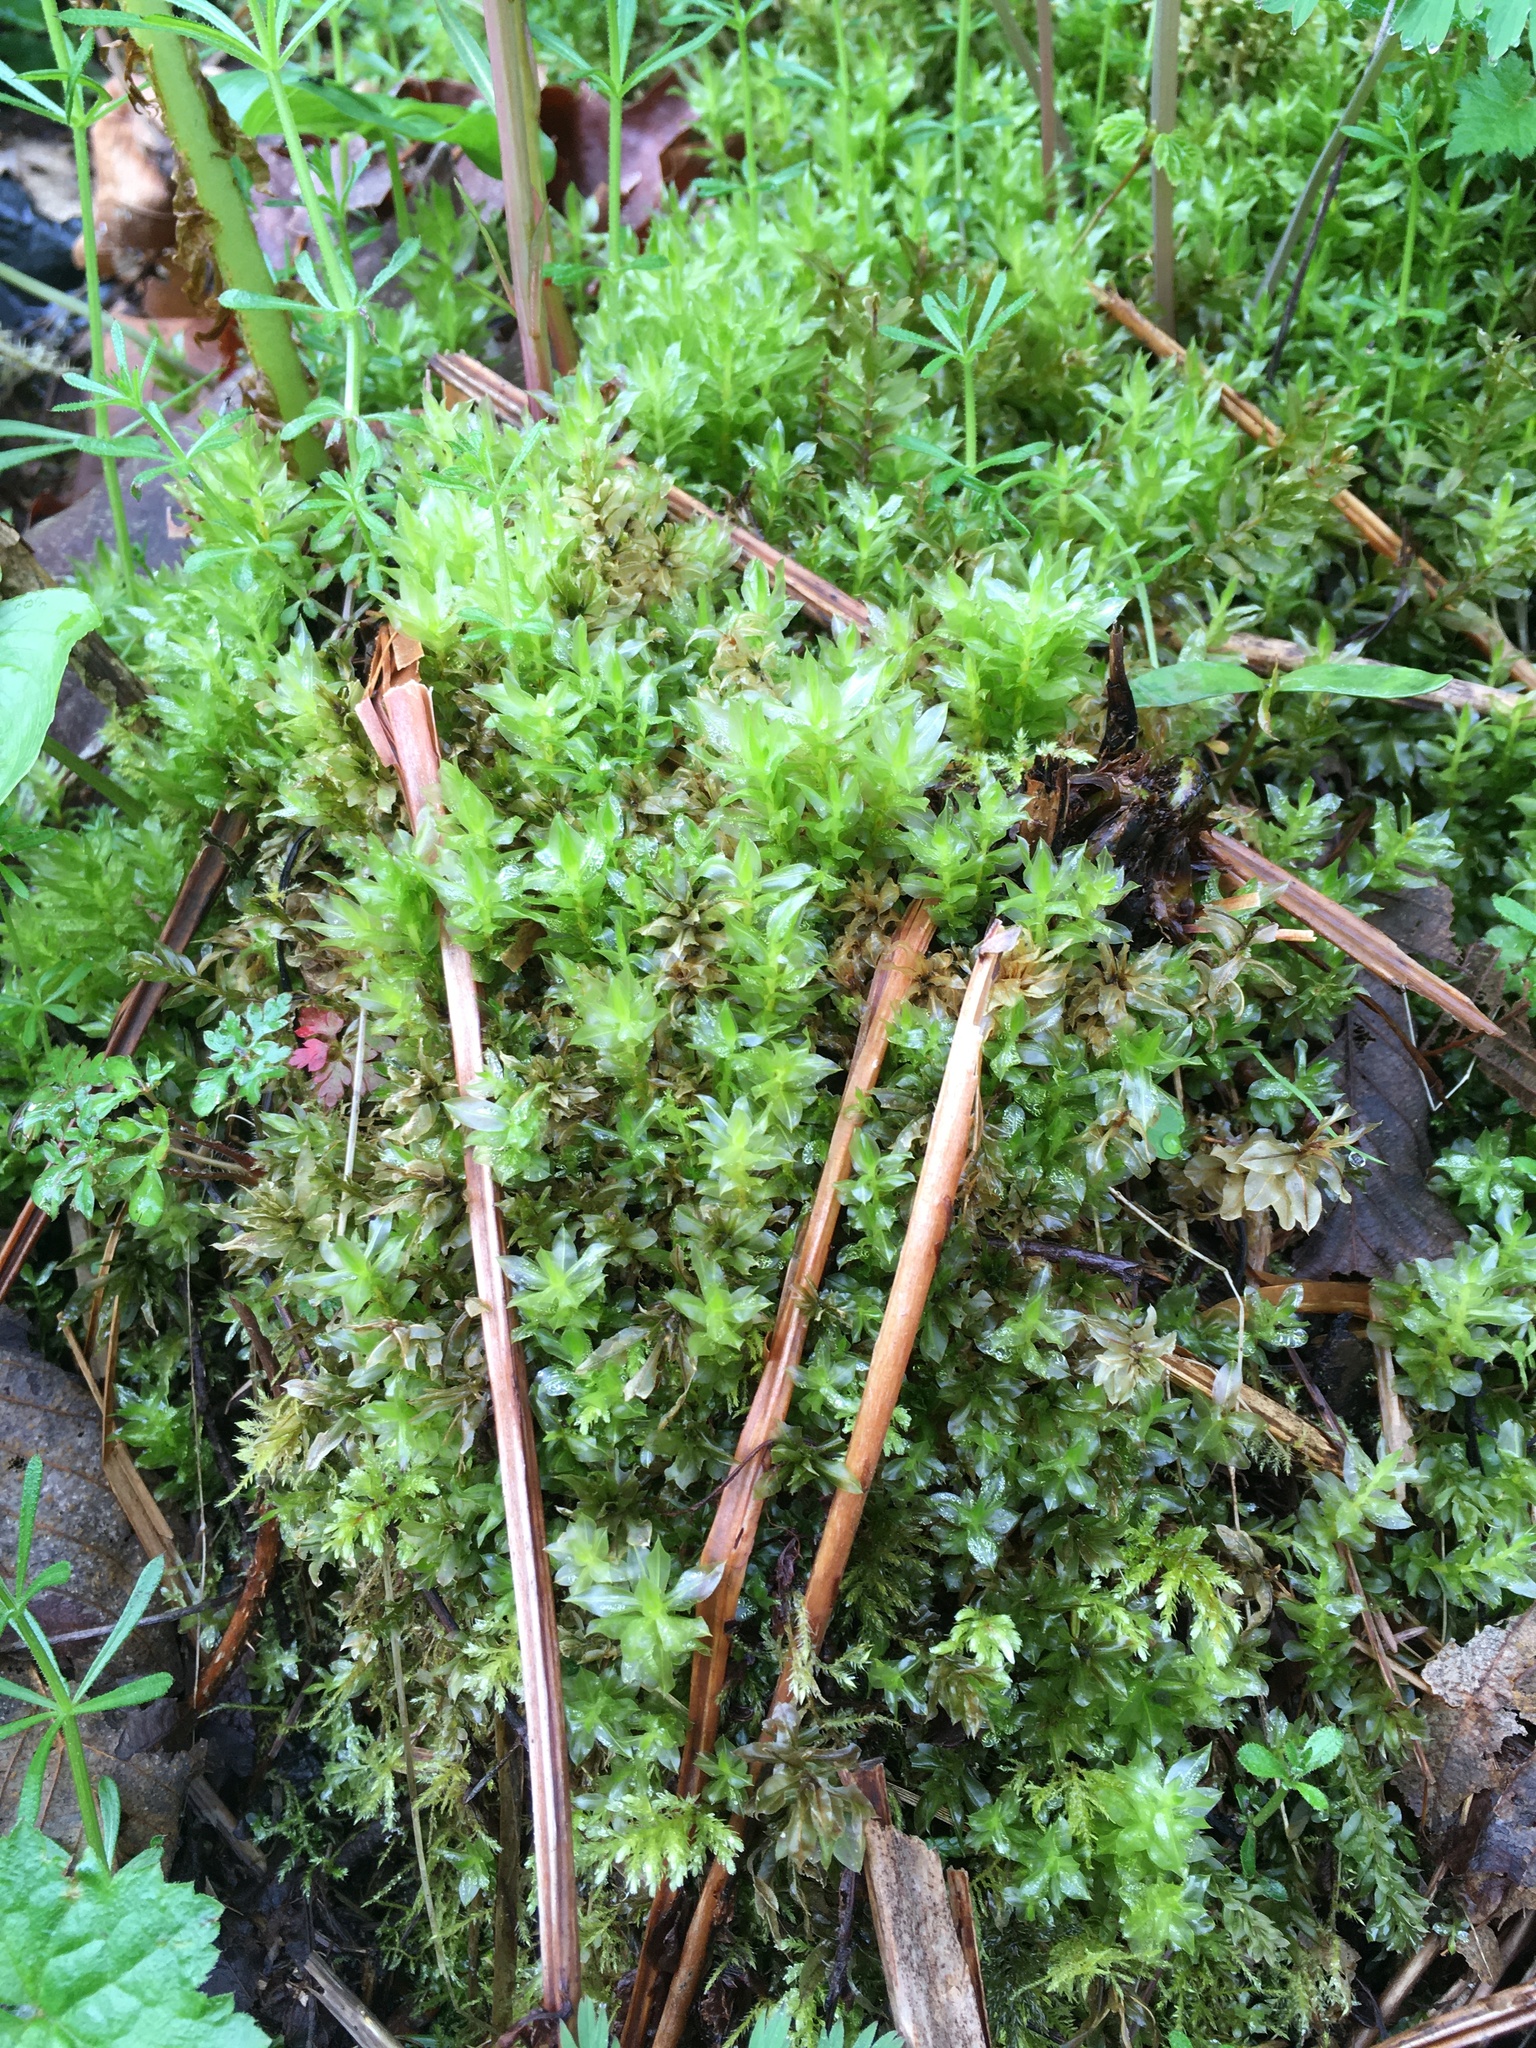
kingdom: Plantae
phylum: Bryophyta
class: Bryopsida
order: Bryales
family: Mniaceae
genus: Plagiomnium
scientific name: Plagiomnium insigne
